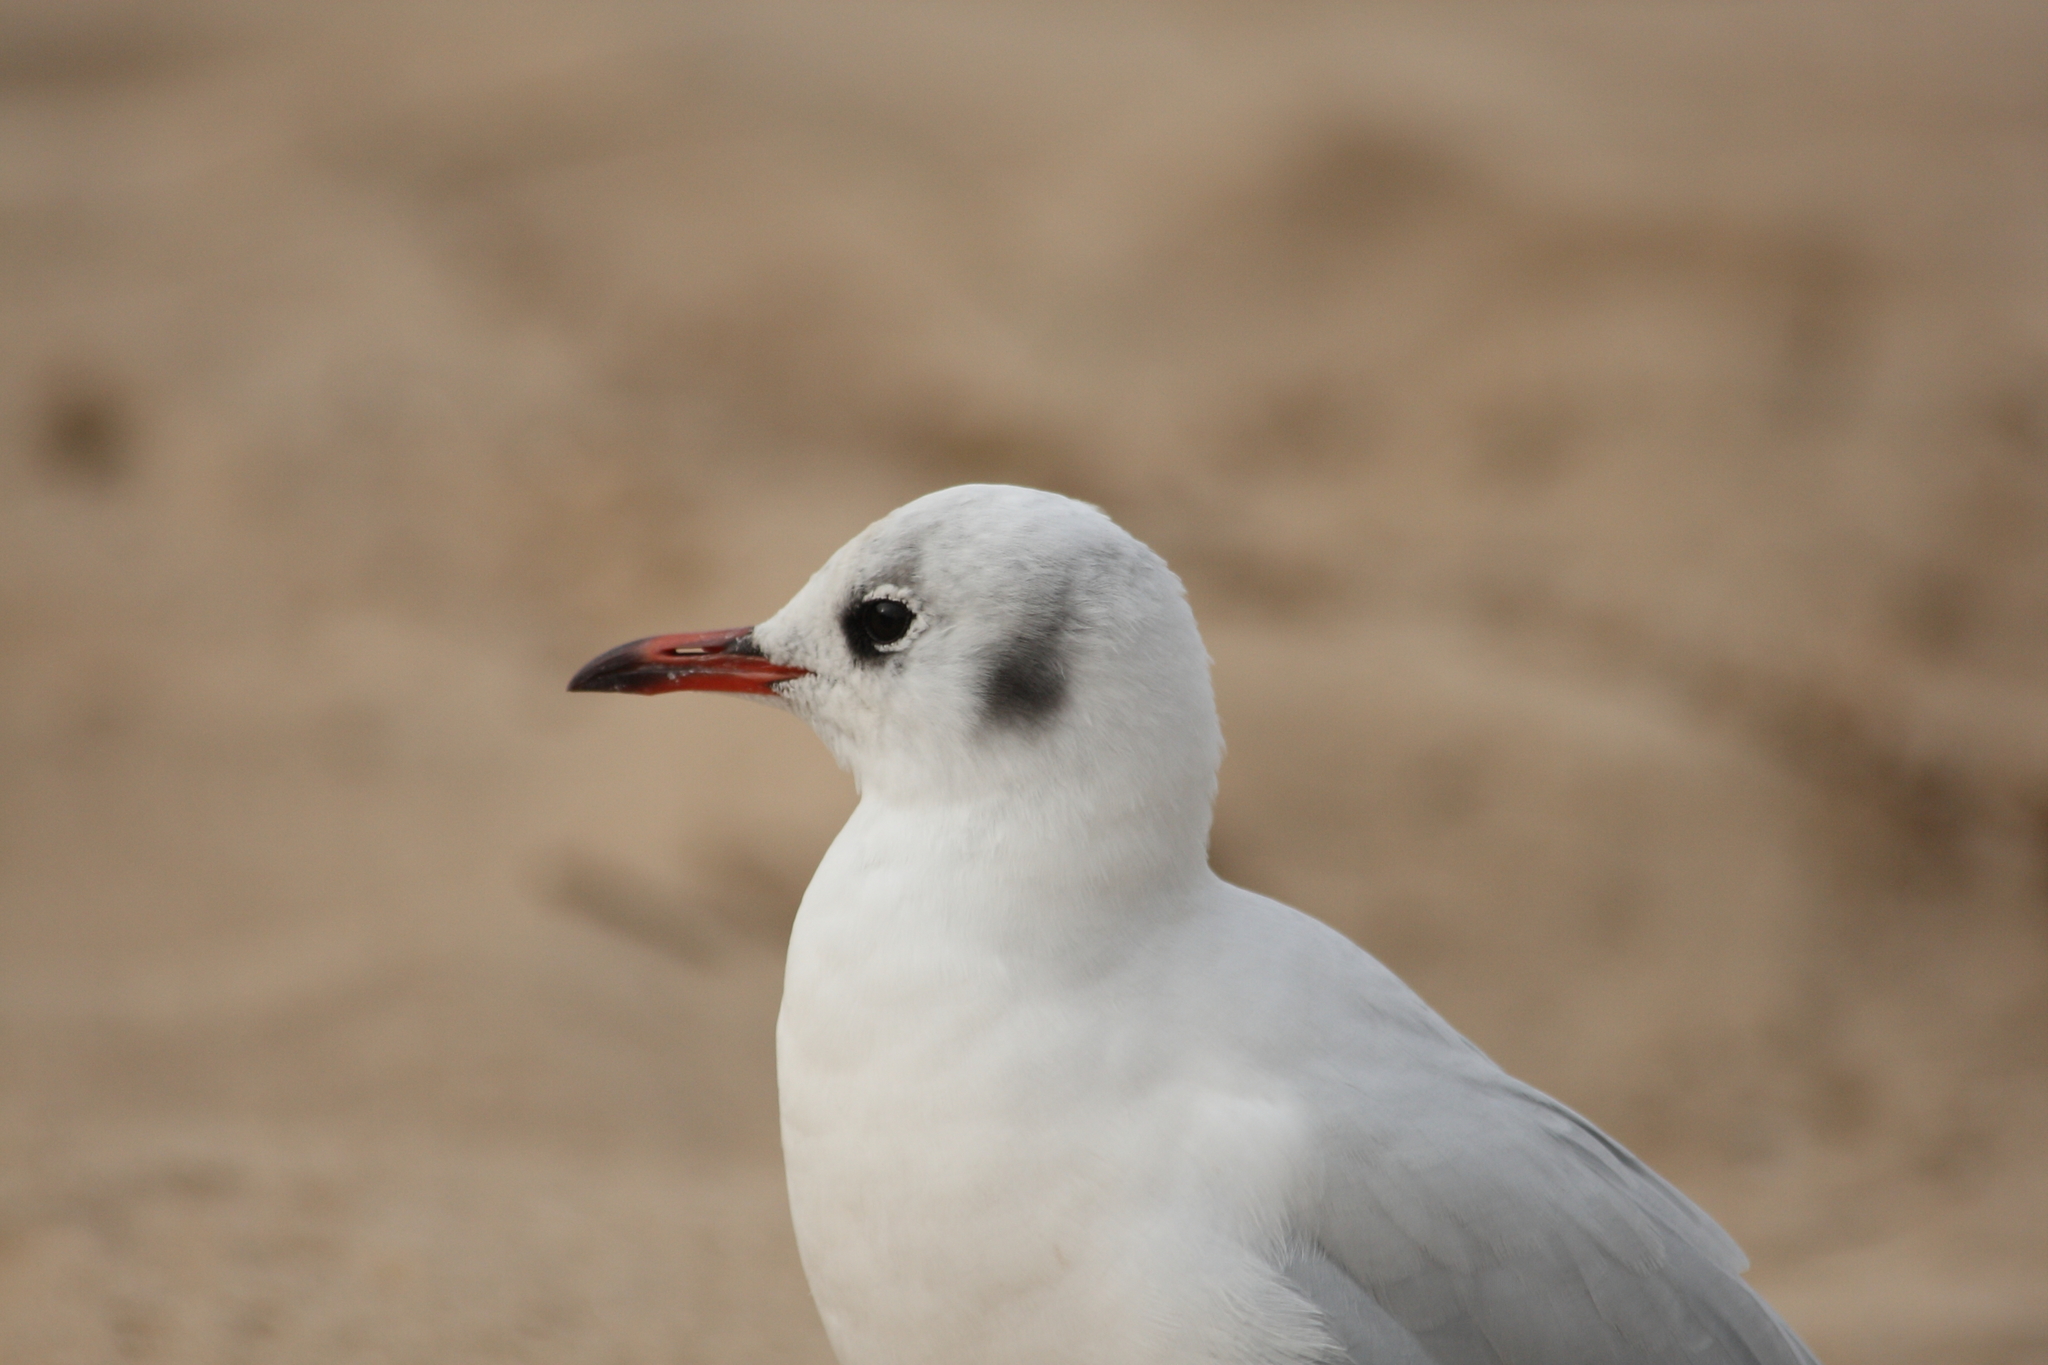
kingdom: Animalia
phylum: Chordata
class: Aves
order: Charadriiformes
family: Laridae
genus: Chroicocephalus
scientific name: Chroicocephalus ridibundus
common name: Black-headed gull
